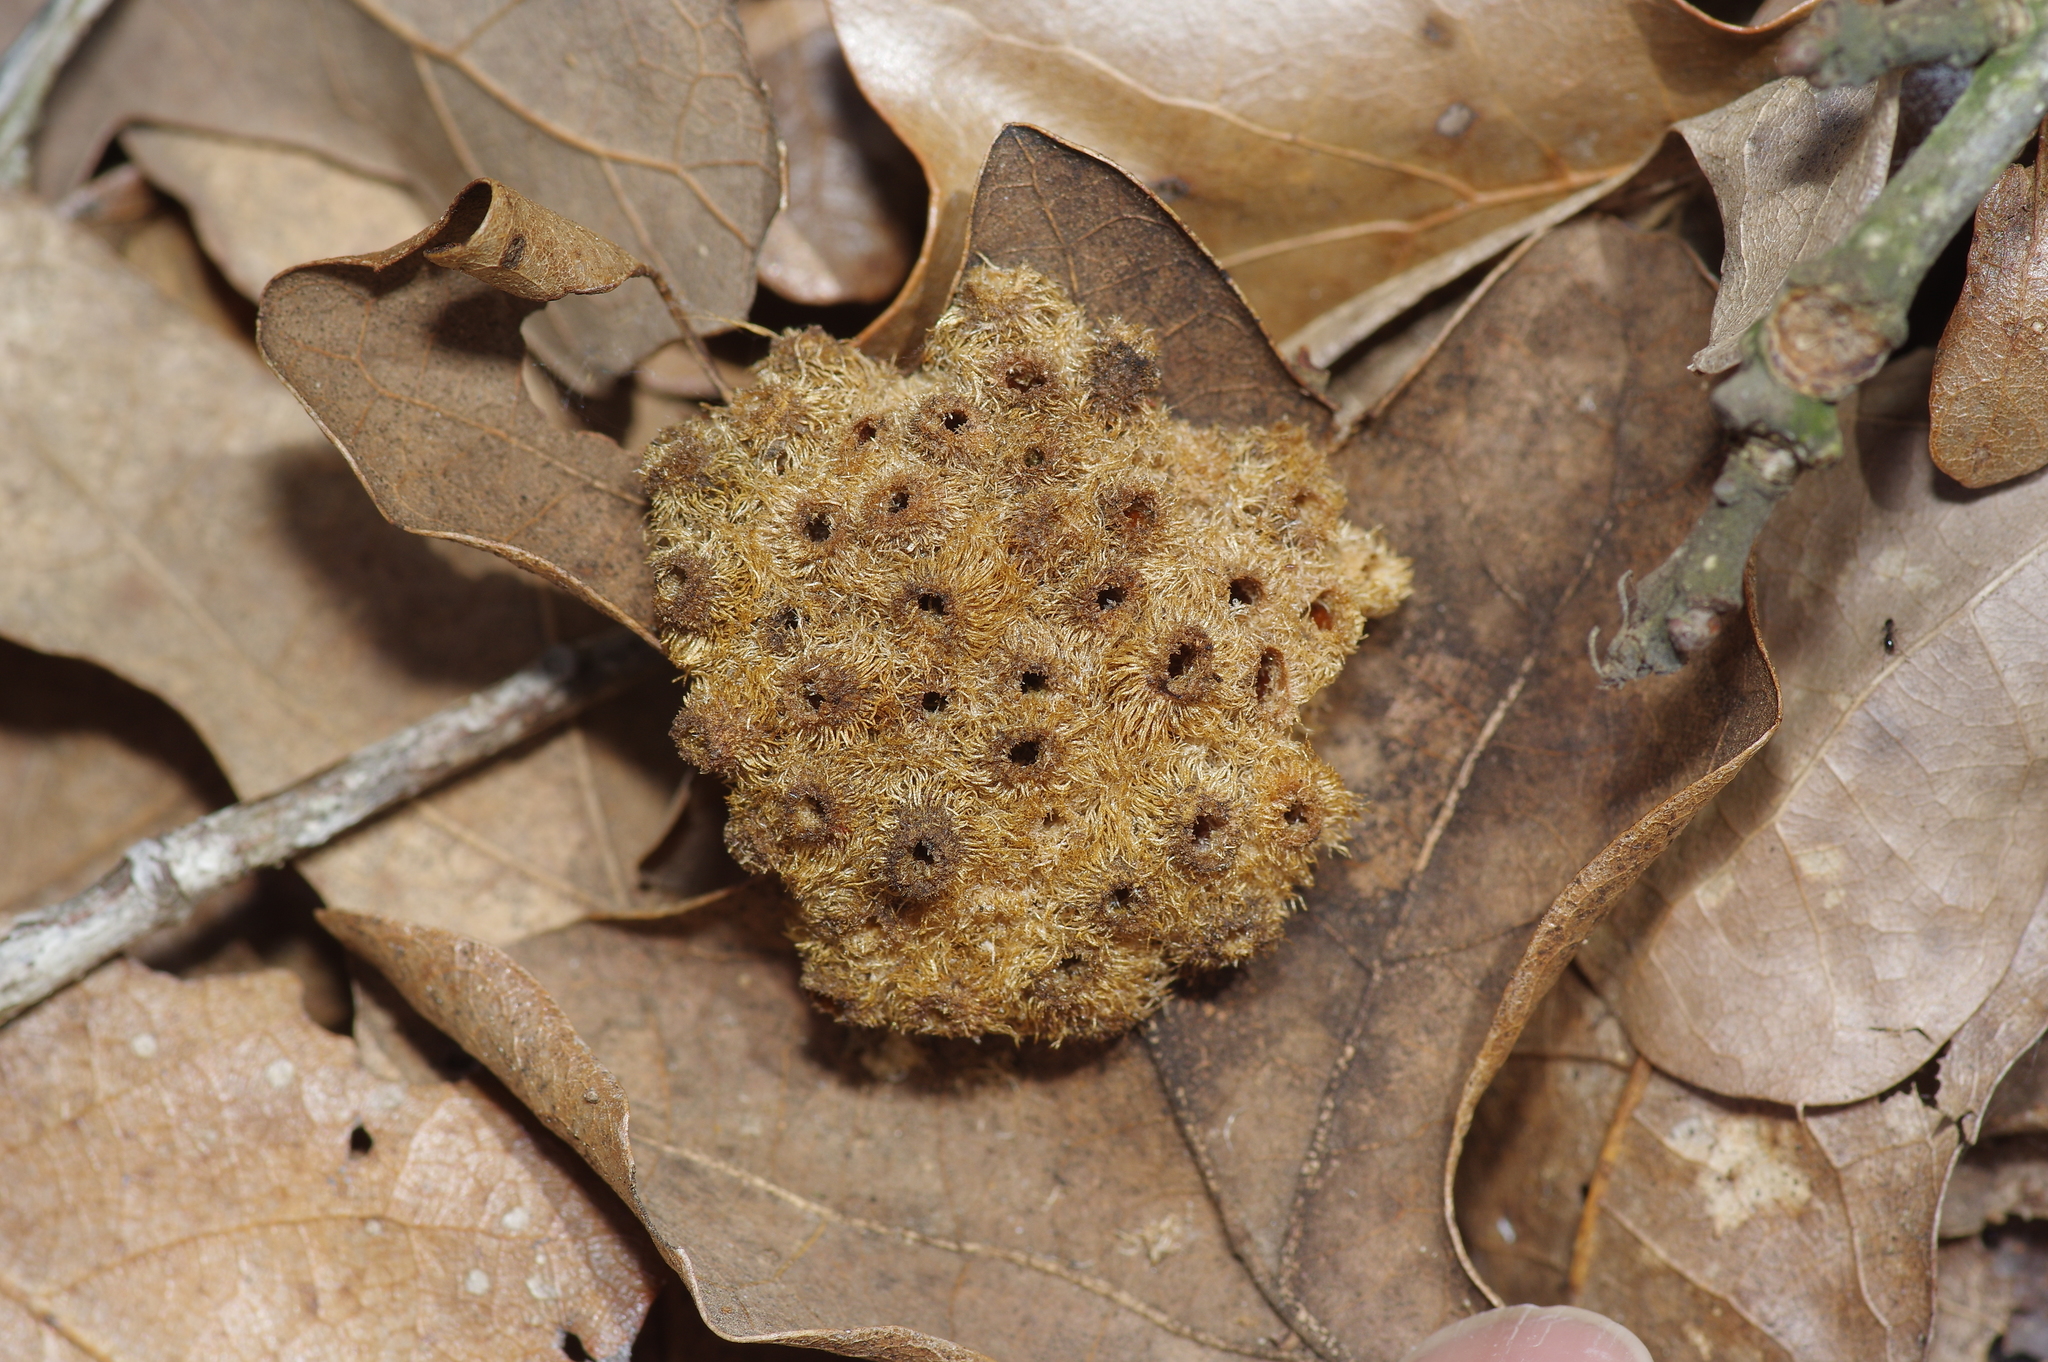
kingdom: Animalia
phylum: Arthropoda
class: Insecta
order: Hymenoptera
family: Cynipidae
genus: Andricus
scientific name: Andricus
